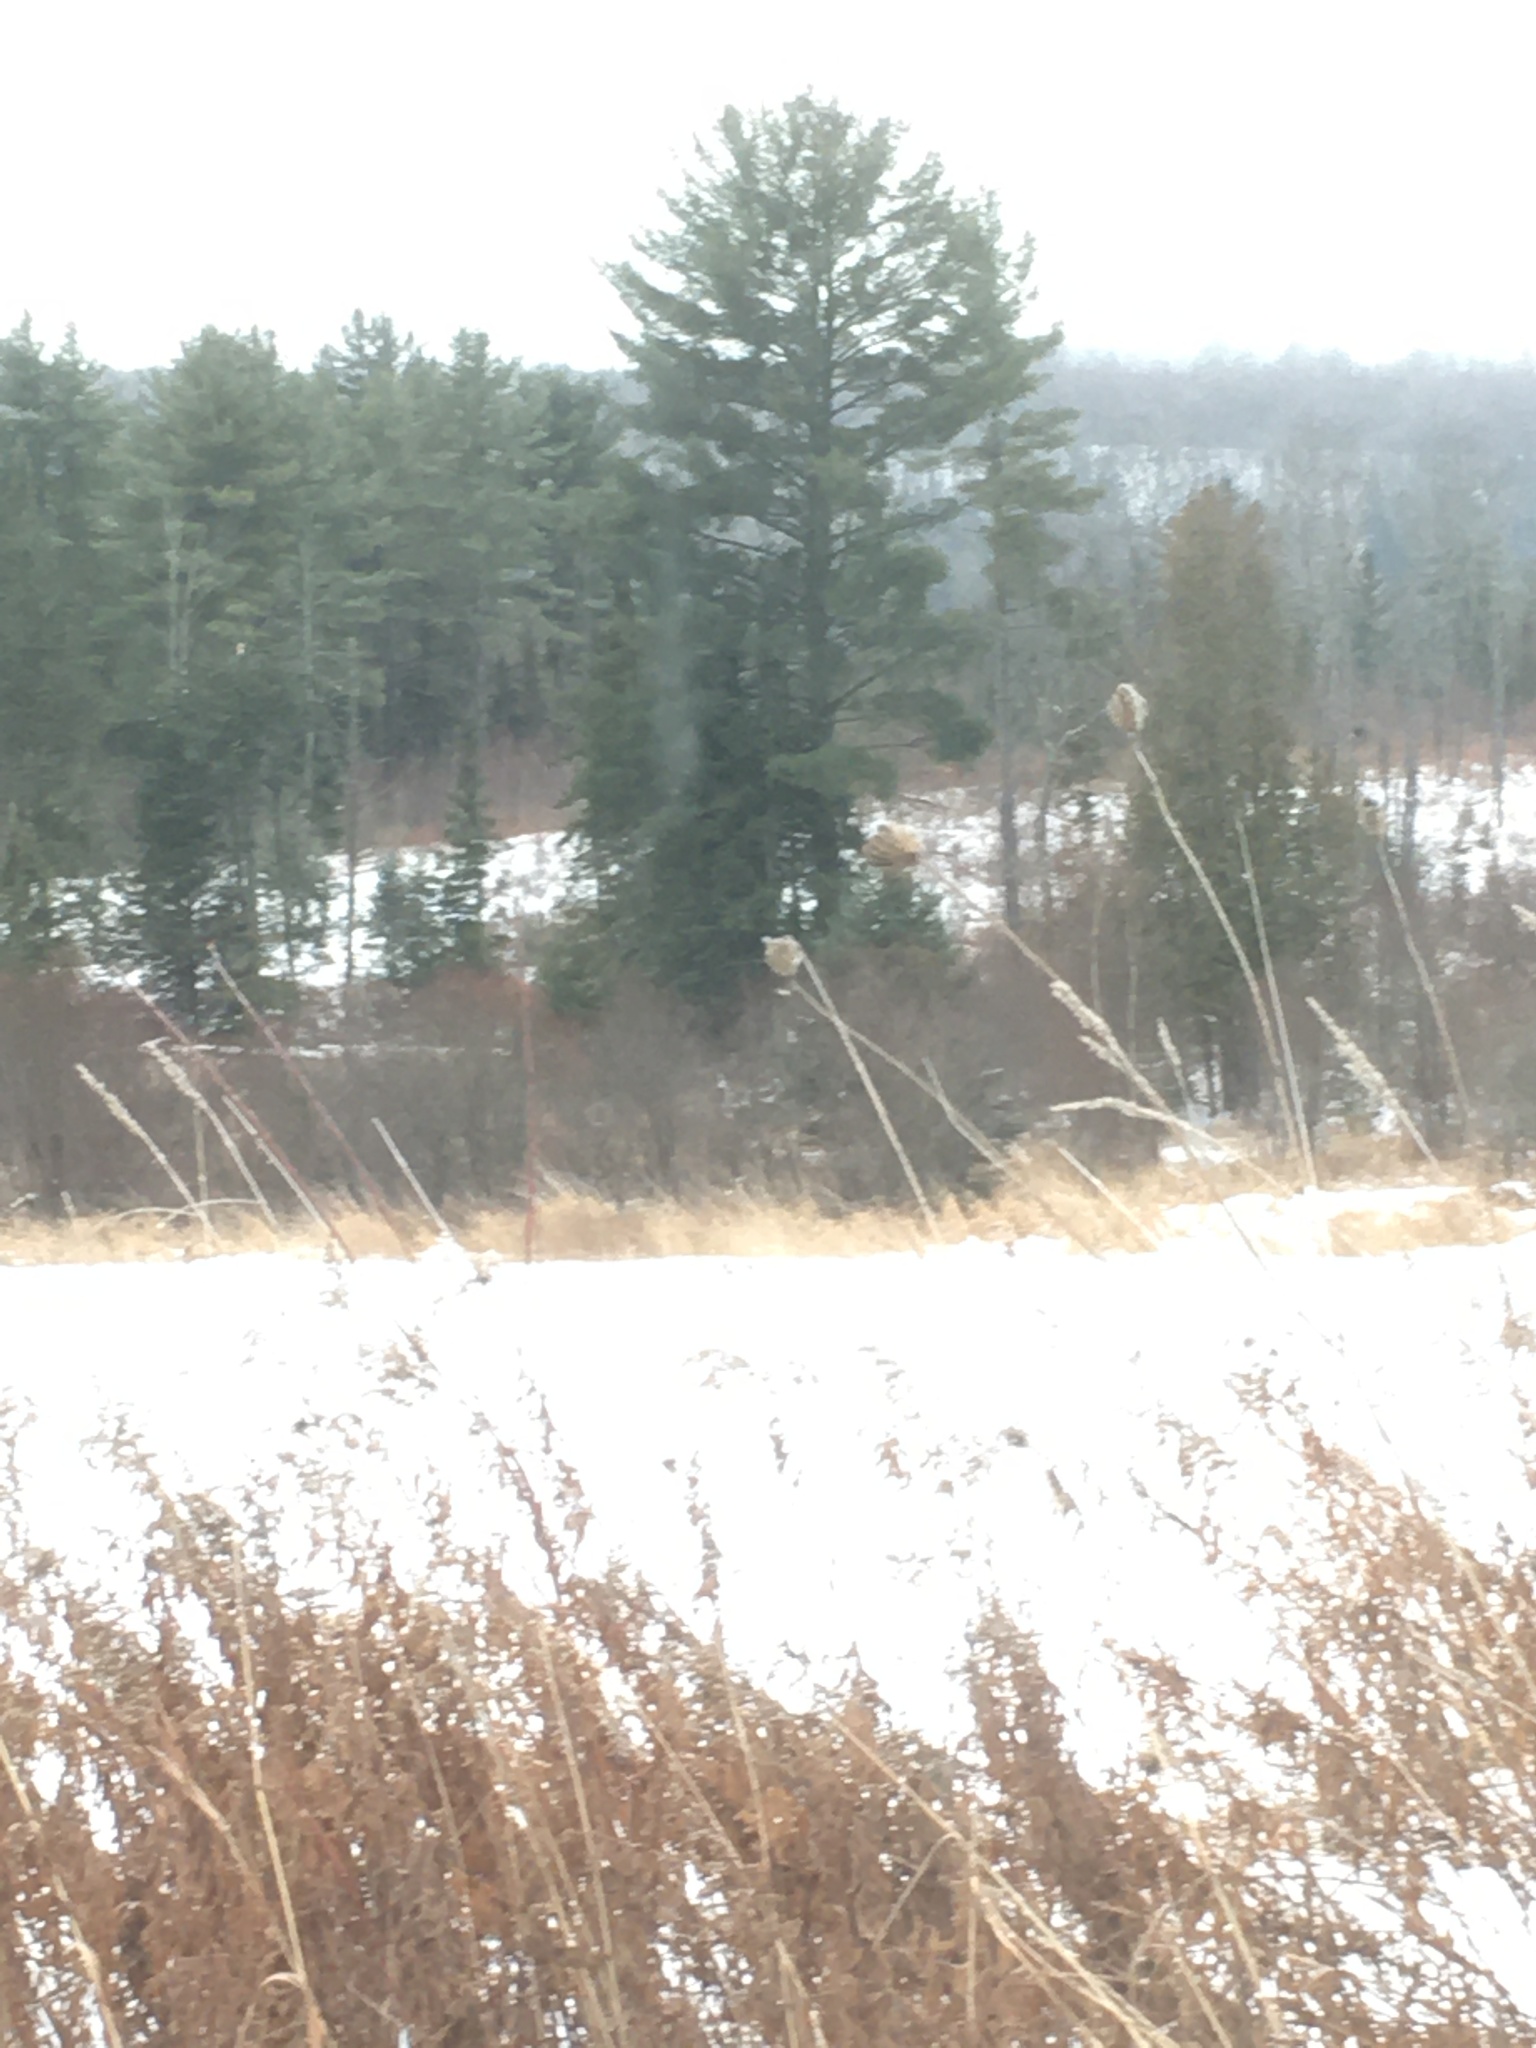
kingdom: Plantae
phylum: Tracheophyta
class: Pinopsida
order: Pinales
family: Pinaceae
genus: Pinus
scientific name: Pinus strobus
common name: Weymouth pine
